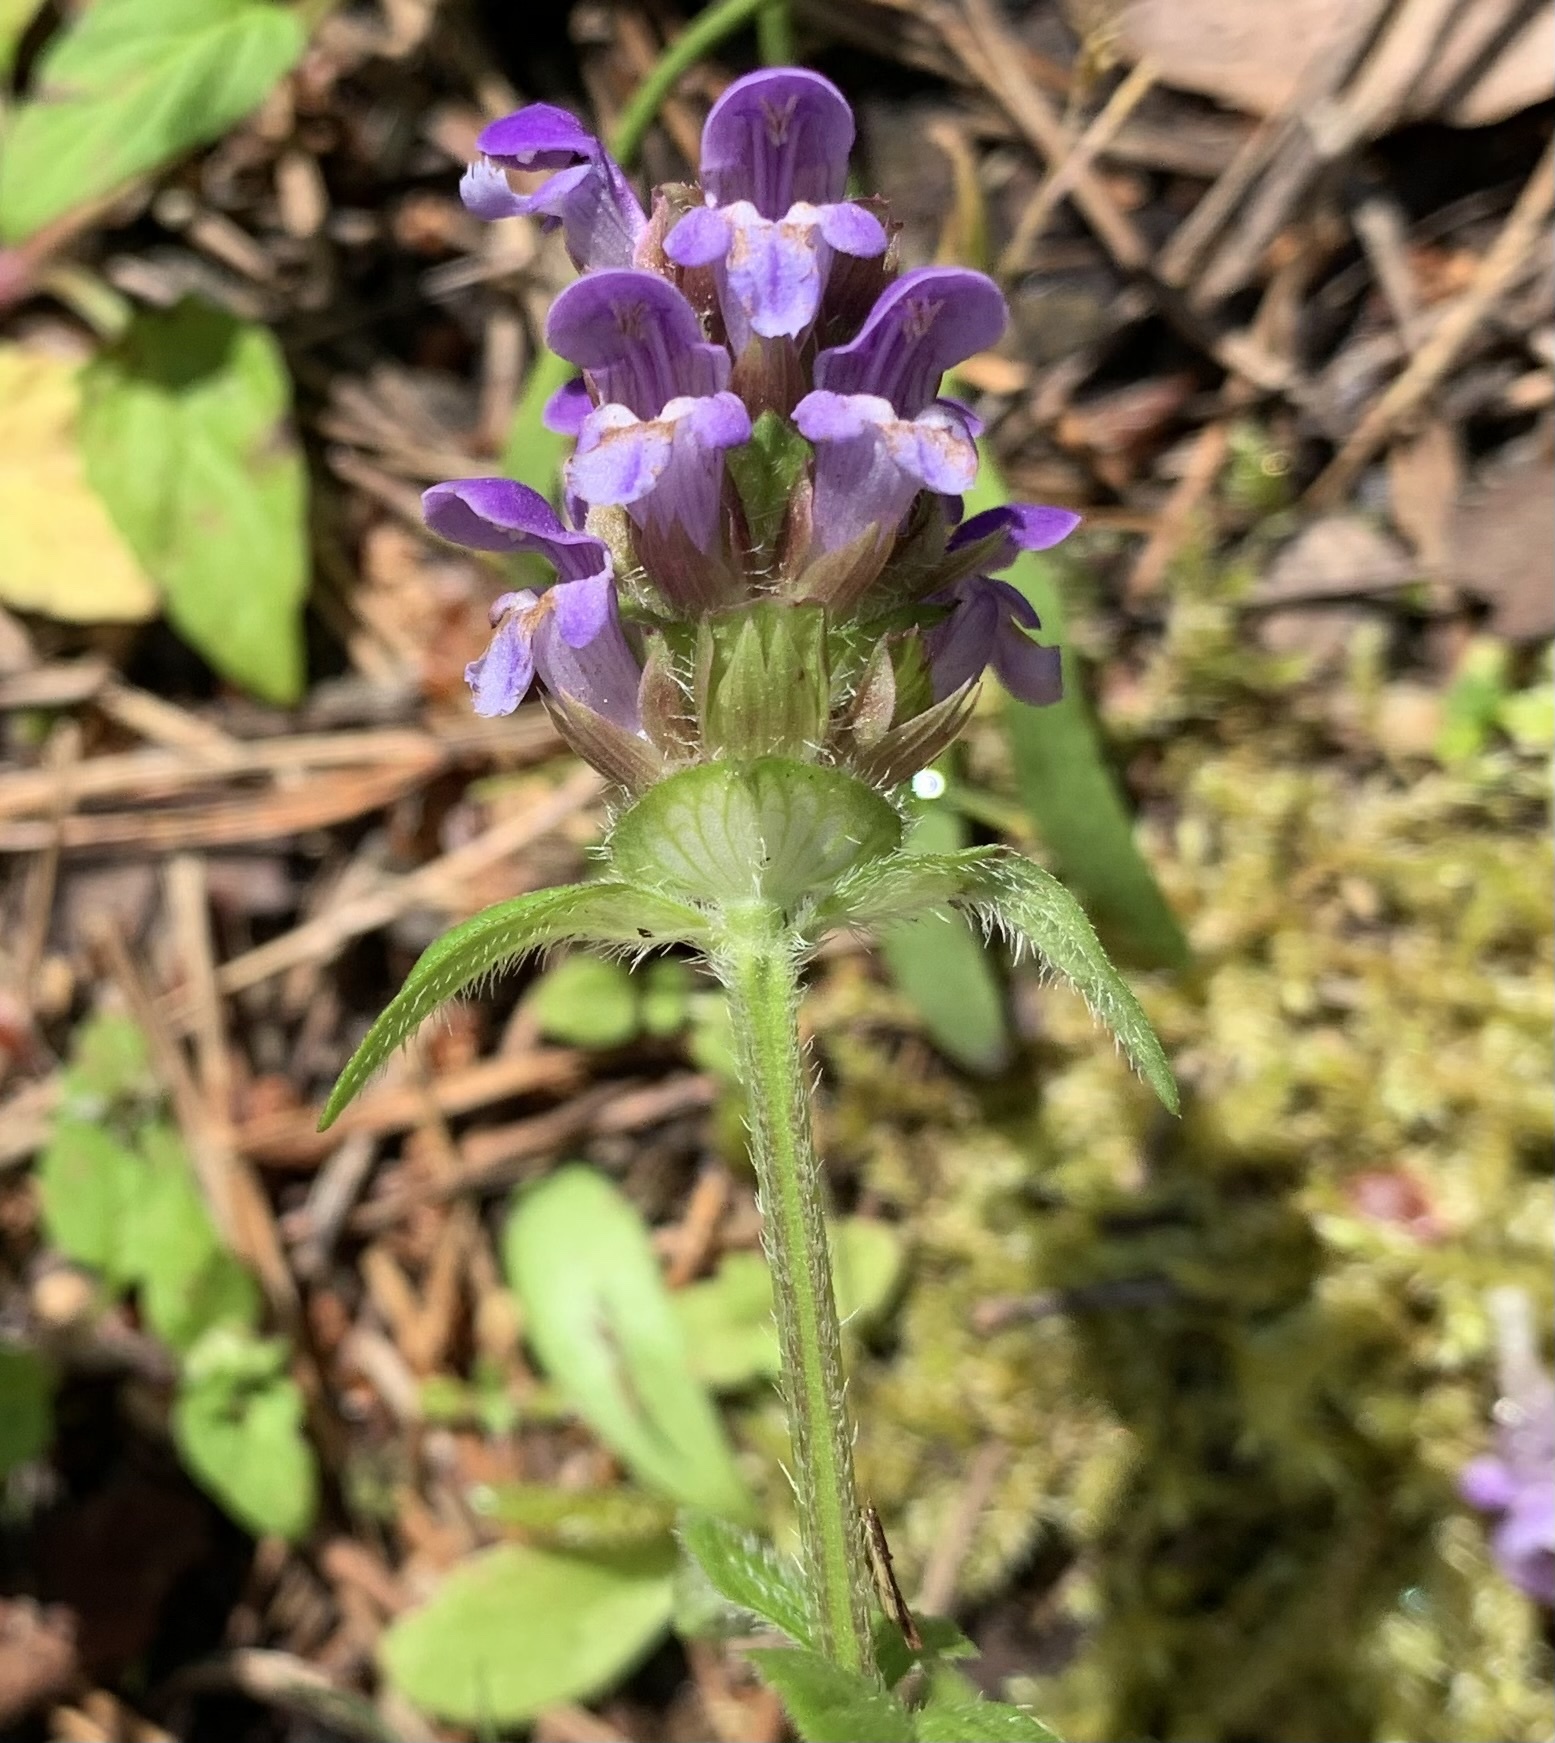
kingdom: Plantae
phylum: Tracheophyta
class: Magnoliopsida
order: Lamiales
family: Lamiaceae
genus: Prunella
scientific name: Prunella vulgaris
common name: Heal-all
